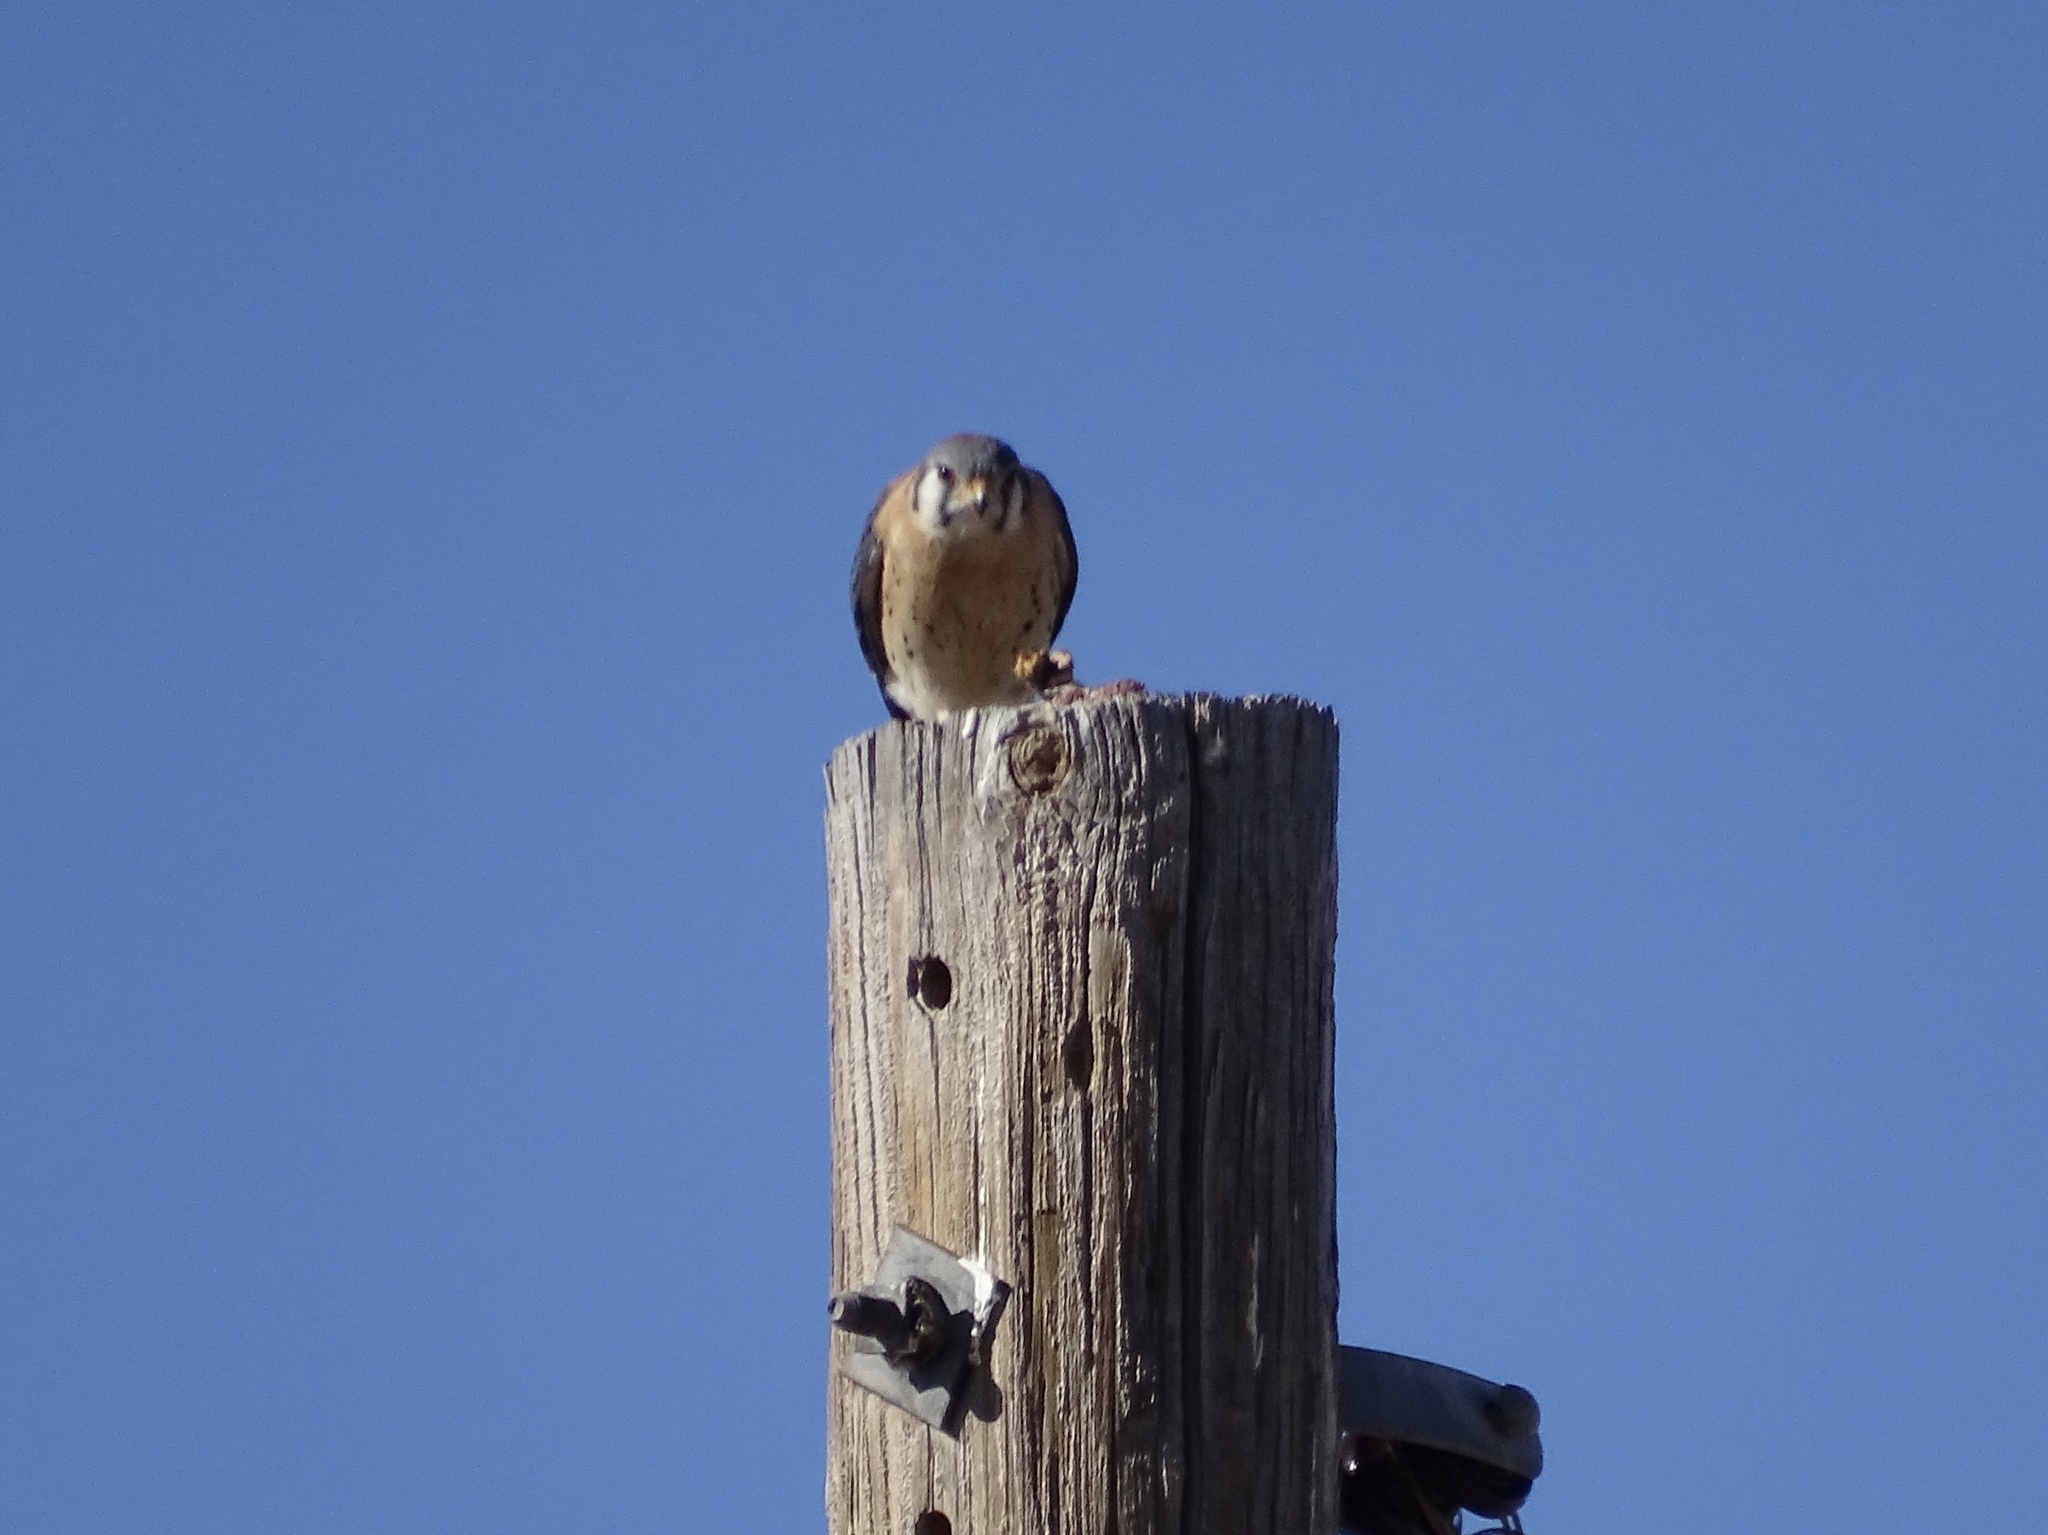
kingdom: Animalia
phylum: Chordata
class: Aves
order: Falconiformes
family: Falconidae
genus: Falco
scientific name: Falco sparverius
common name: American kestrel
